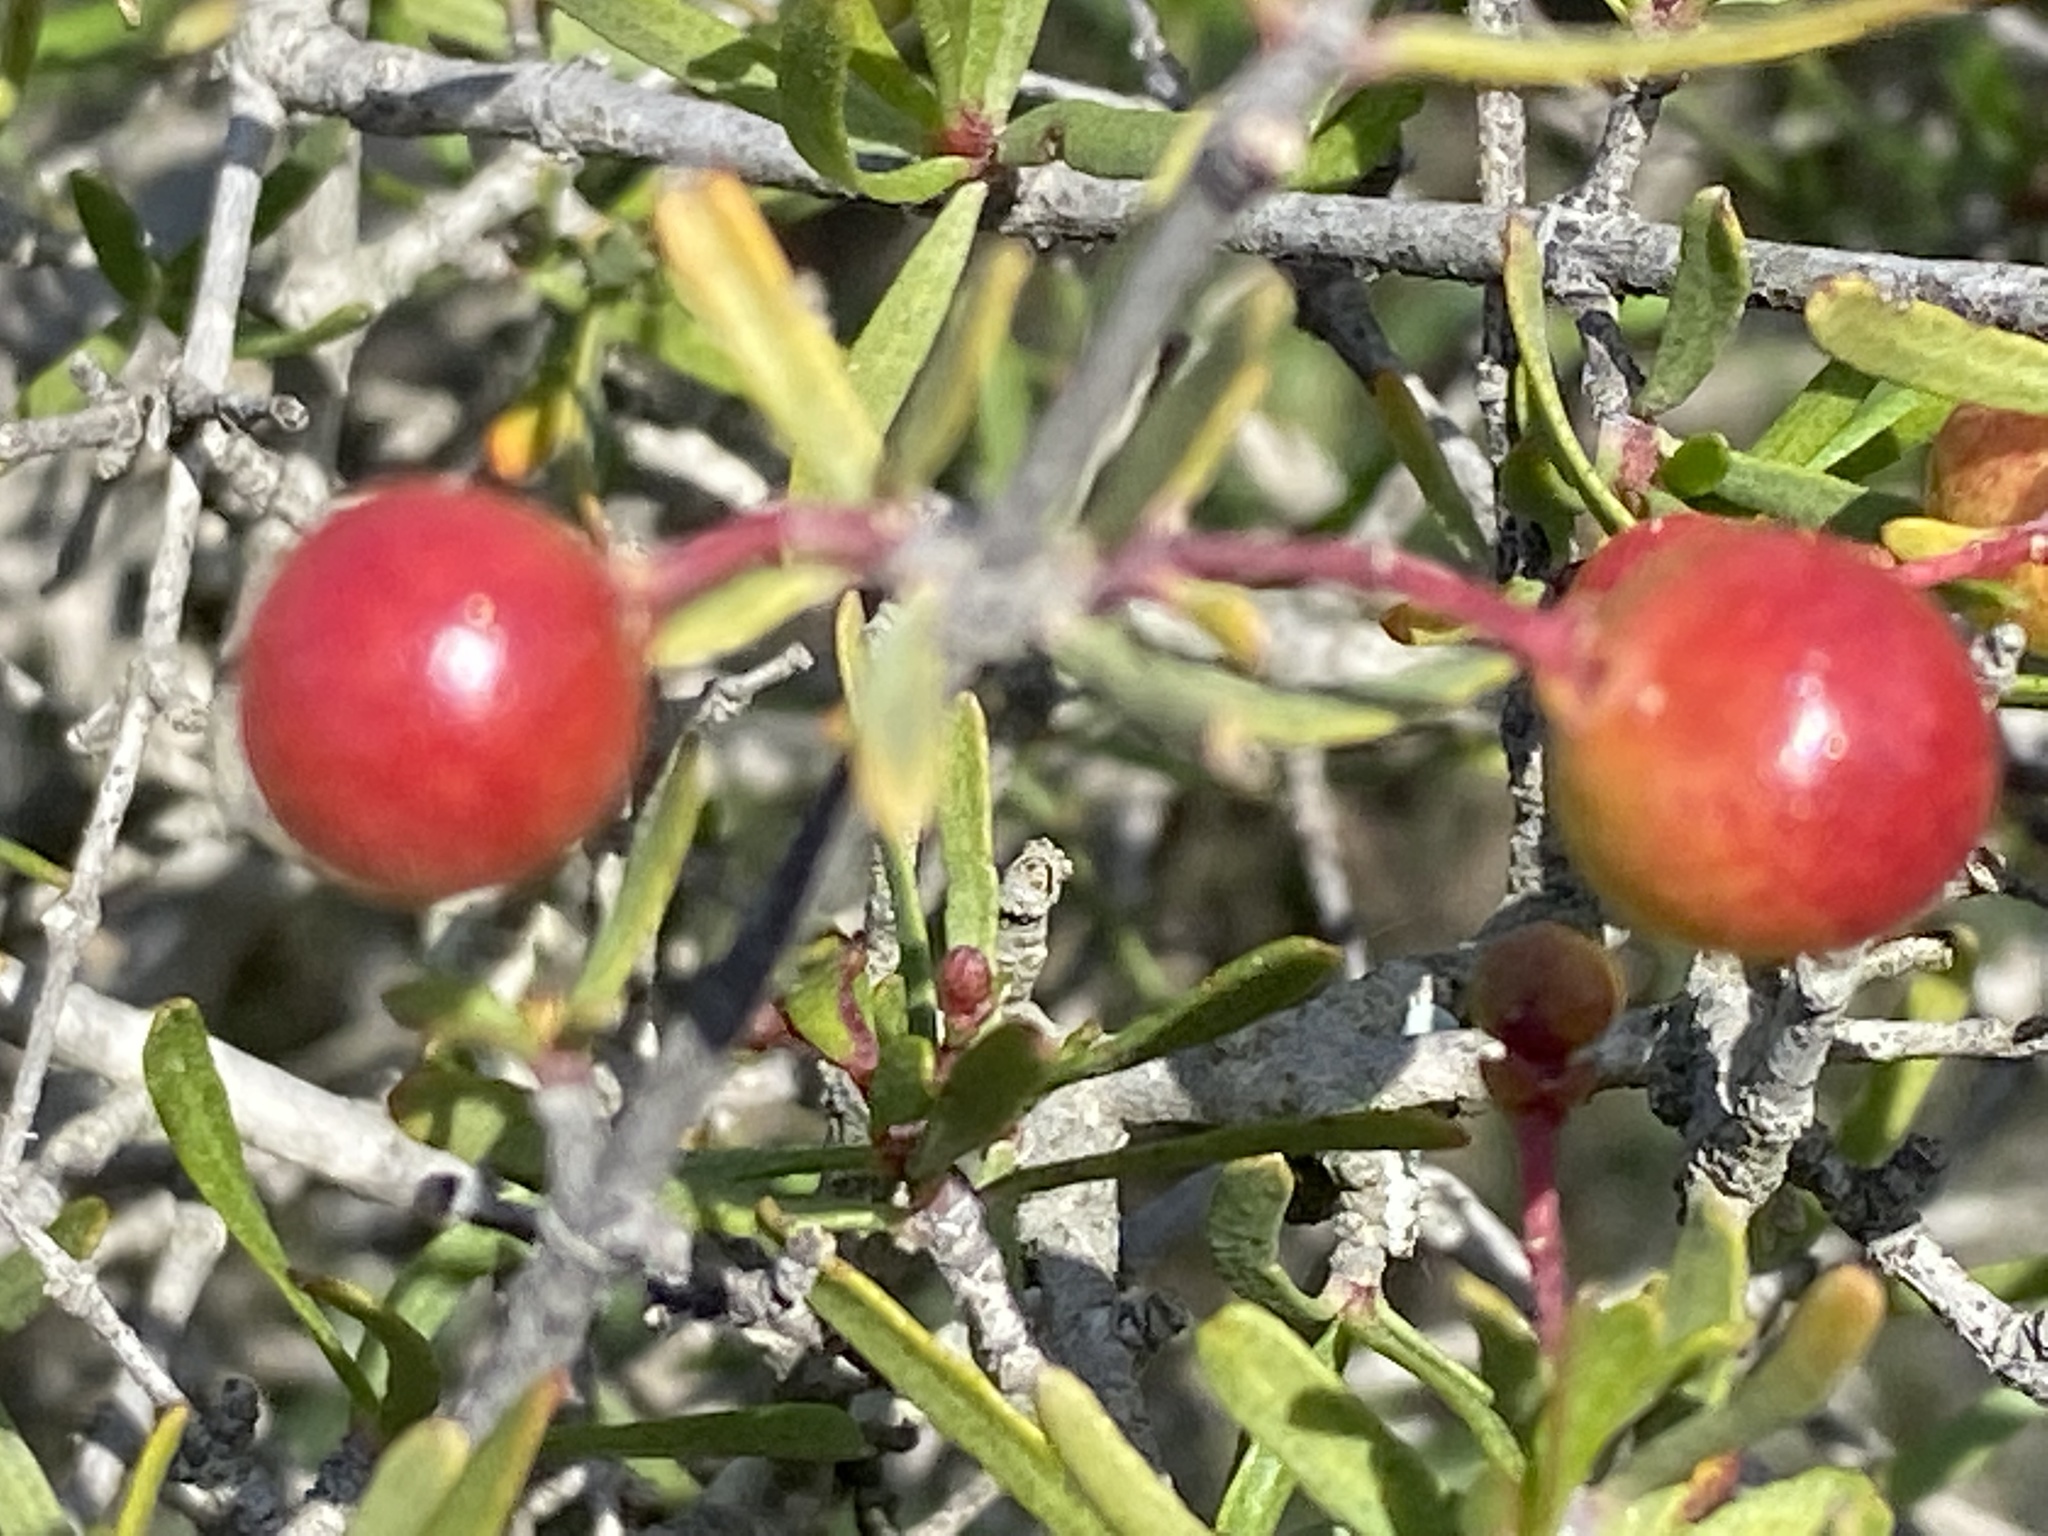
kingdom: Plantae
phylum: Tracheophyta
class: Magnoliopsida
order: Sapindales
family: Rutaceae
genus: Cneoridium
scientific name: Cneoridium dumosum
